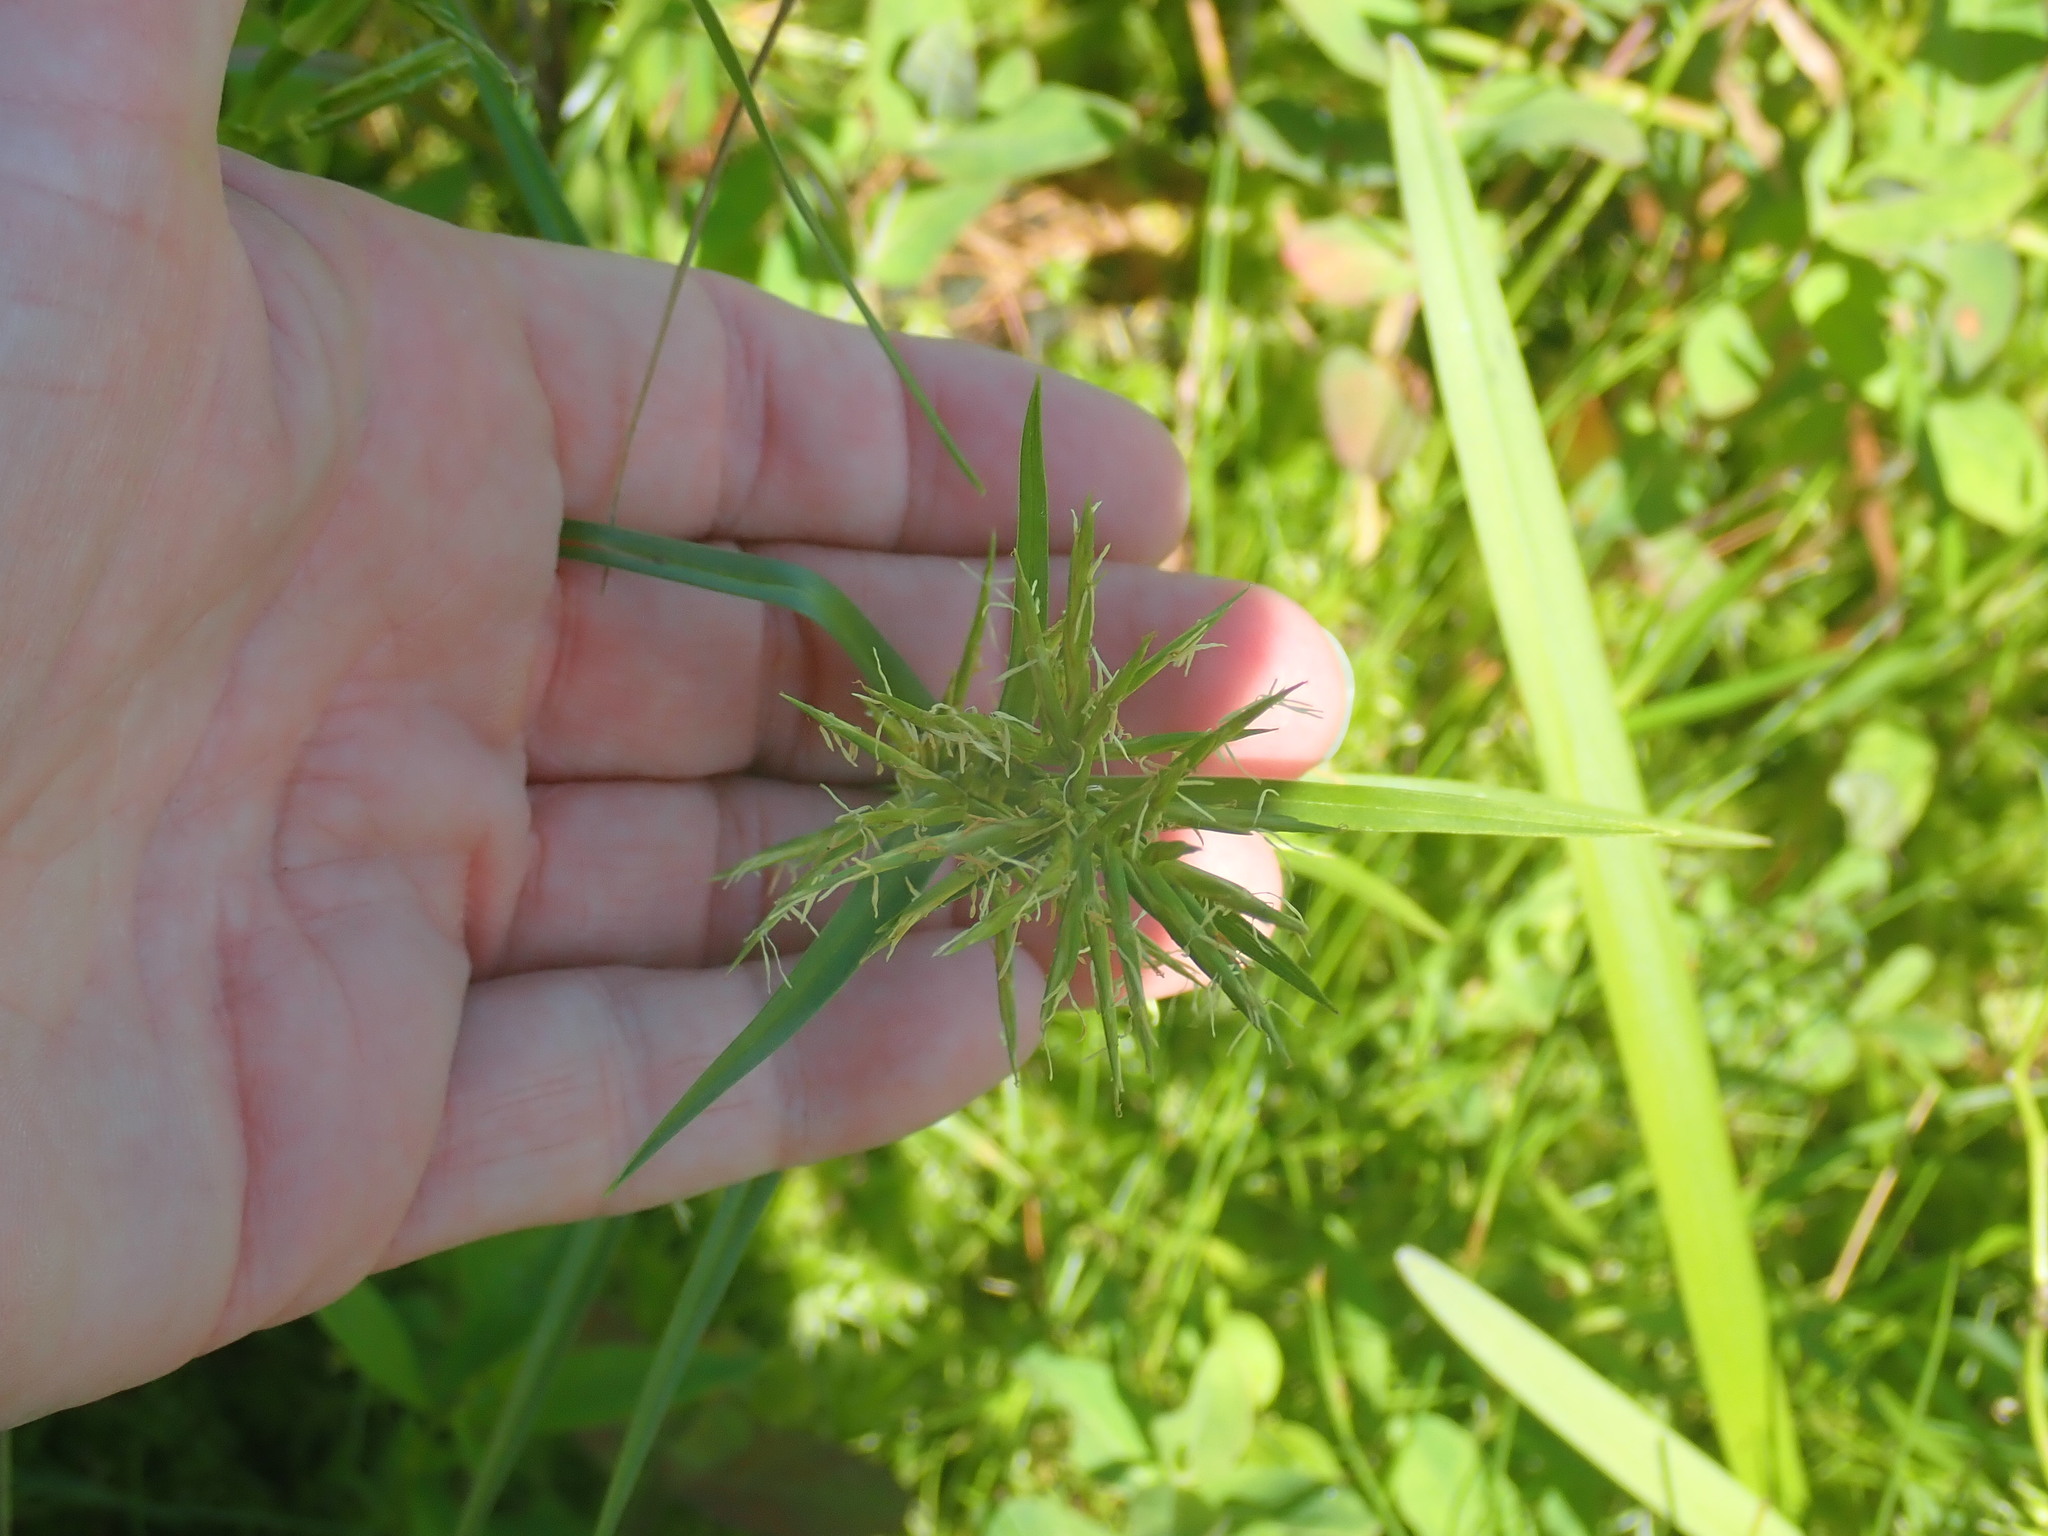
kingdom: Plantae
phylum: Tracheophyta
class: Liliopsida
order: Poales
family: Cyperaceae
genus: Dulichium
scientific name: Dulichium arundinaceum
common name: Three-way sedge
